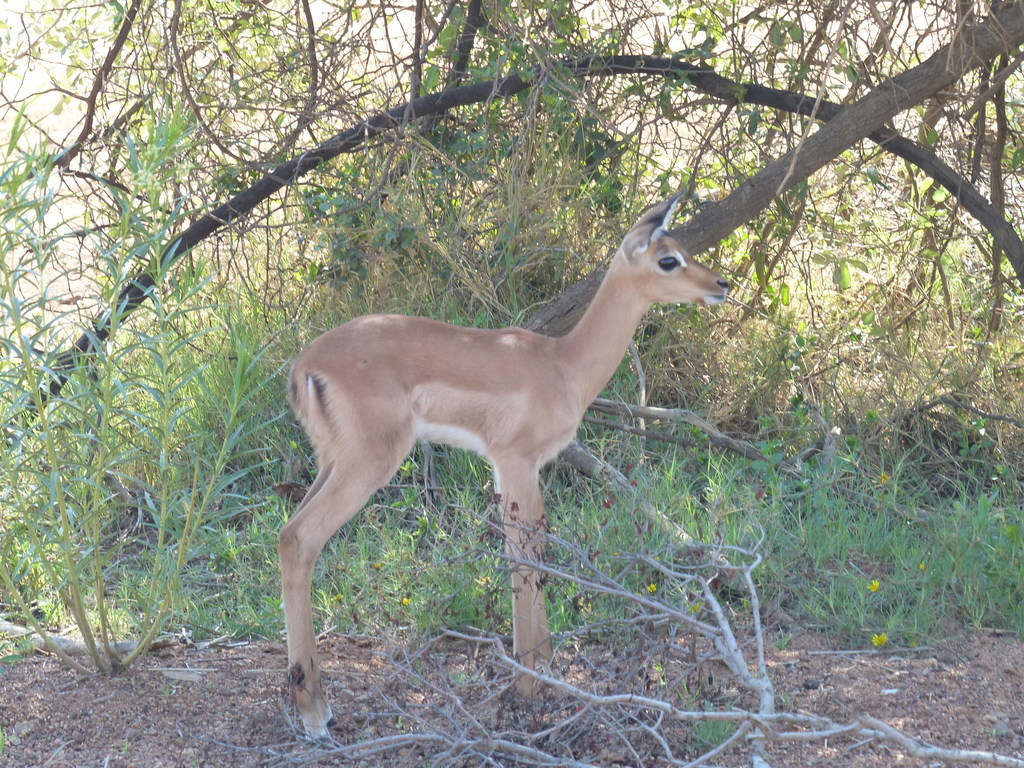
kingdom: Animalia
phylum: Chordata
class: Mammalia
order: Artiodactyla
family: Bovidae
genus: Aepyceros
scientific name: Aepyceros melampus
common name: Impala
